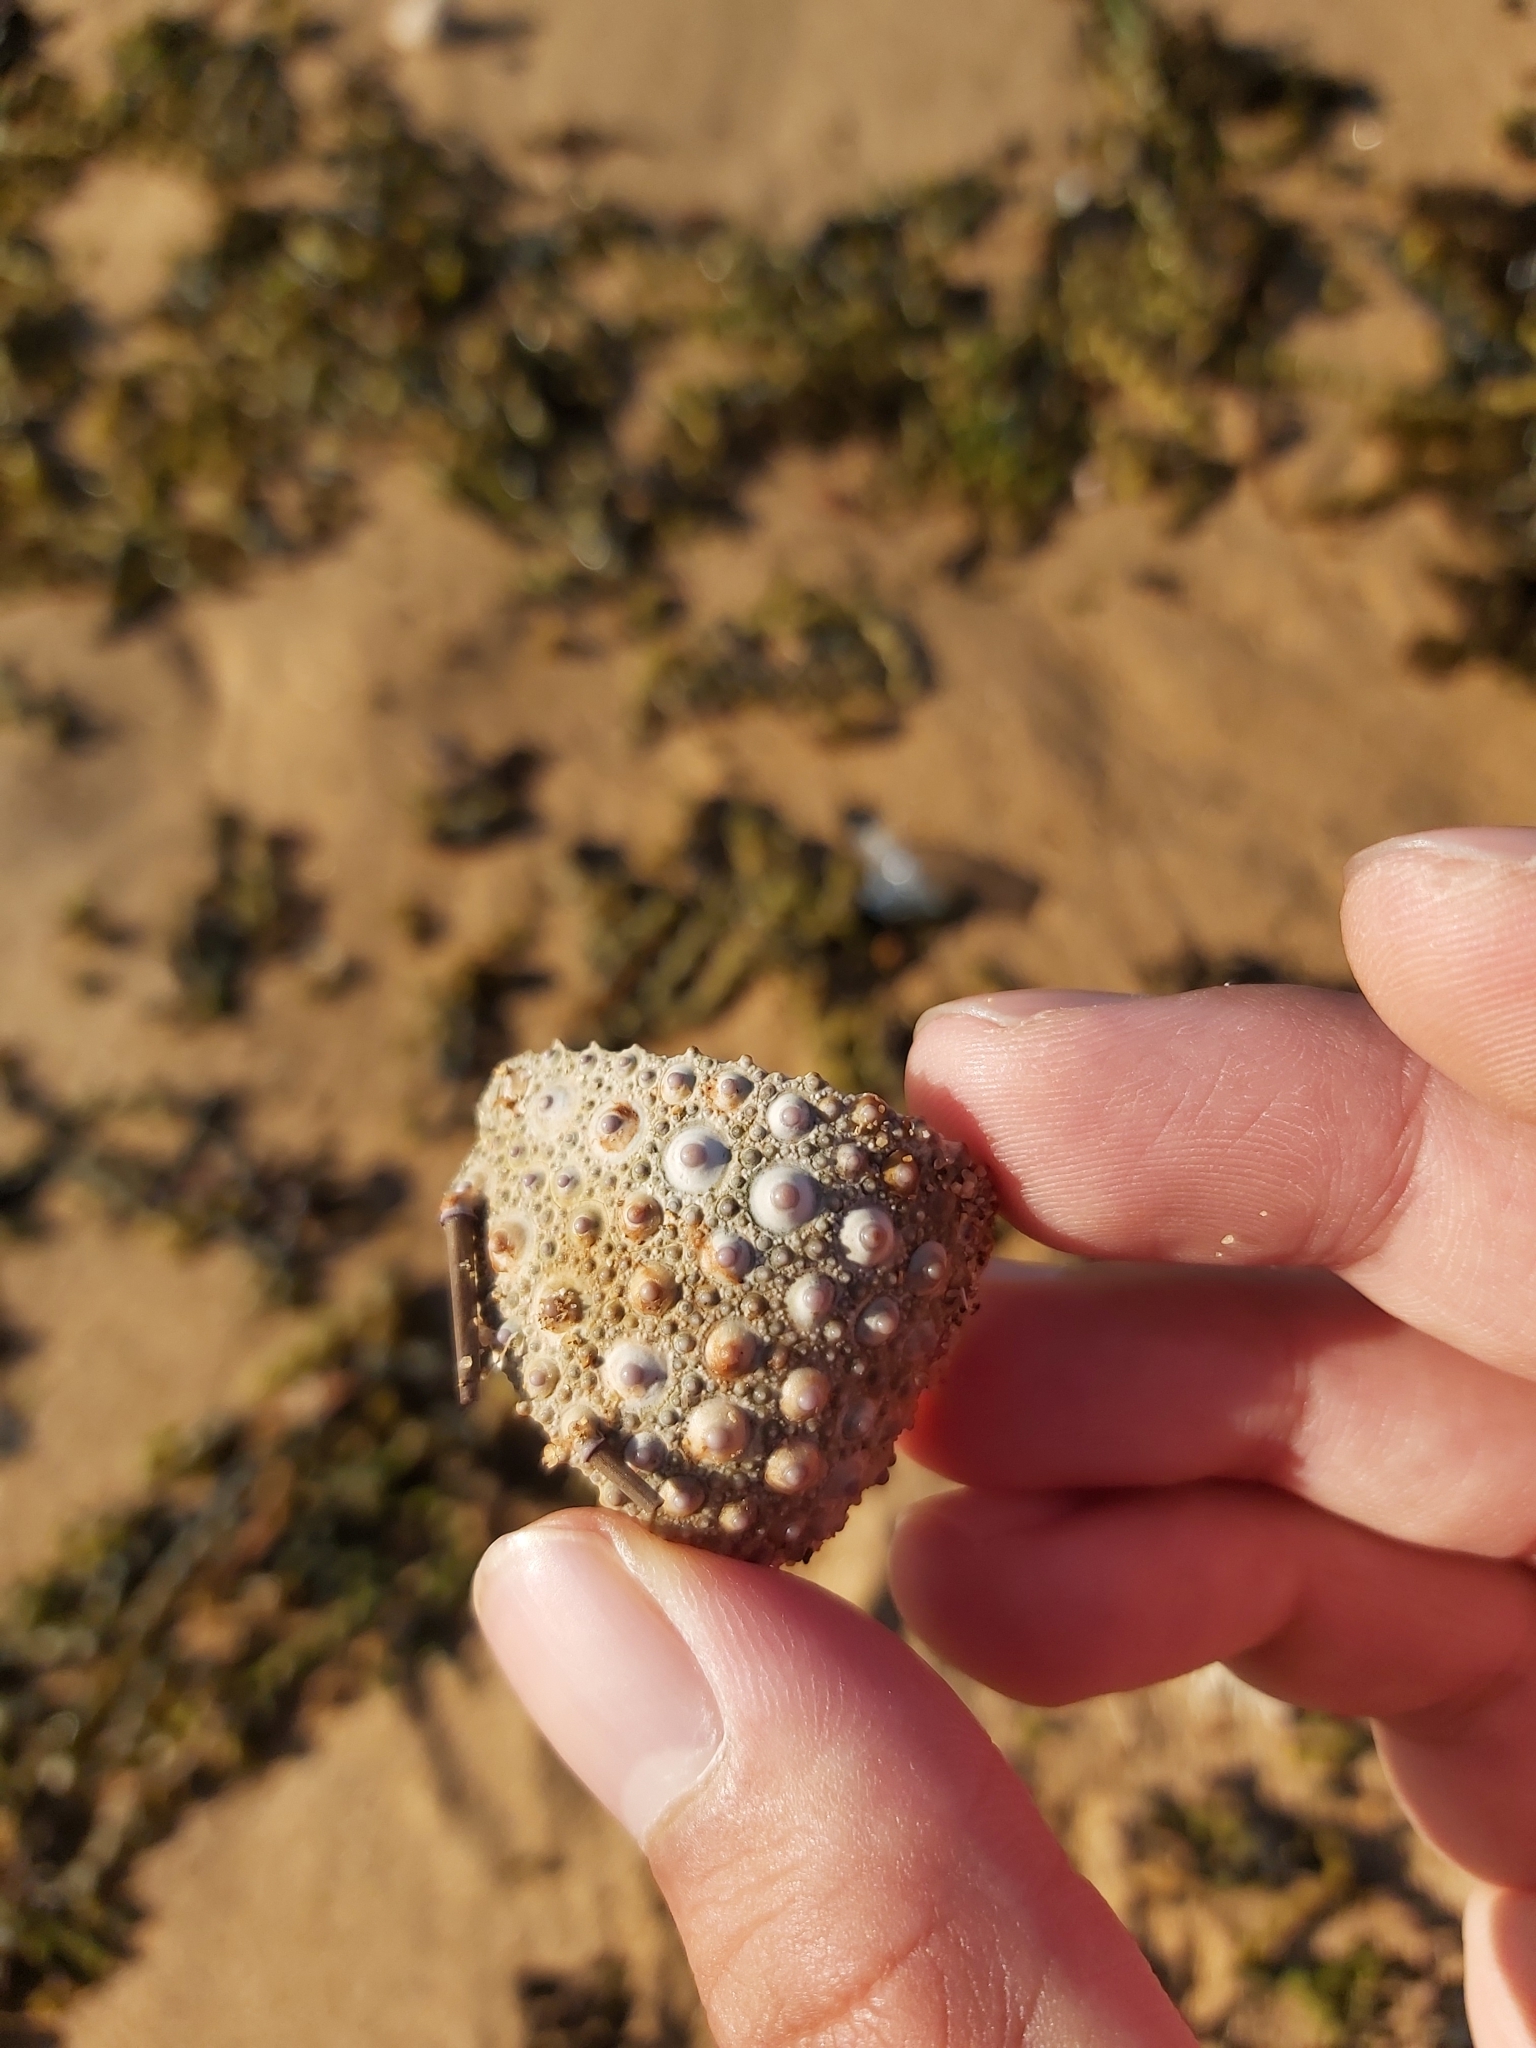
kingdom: Animalia
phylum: Echinodermata
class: Echinoidea
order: Camarodonta
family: Echinometridae
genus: Heliocidaris
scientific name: Heliocidaris erythrogramma
